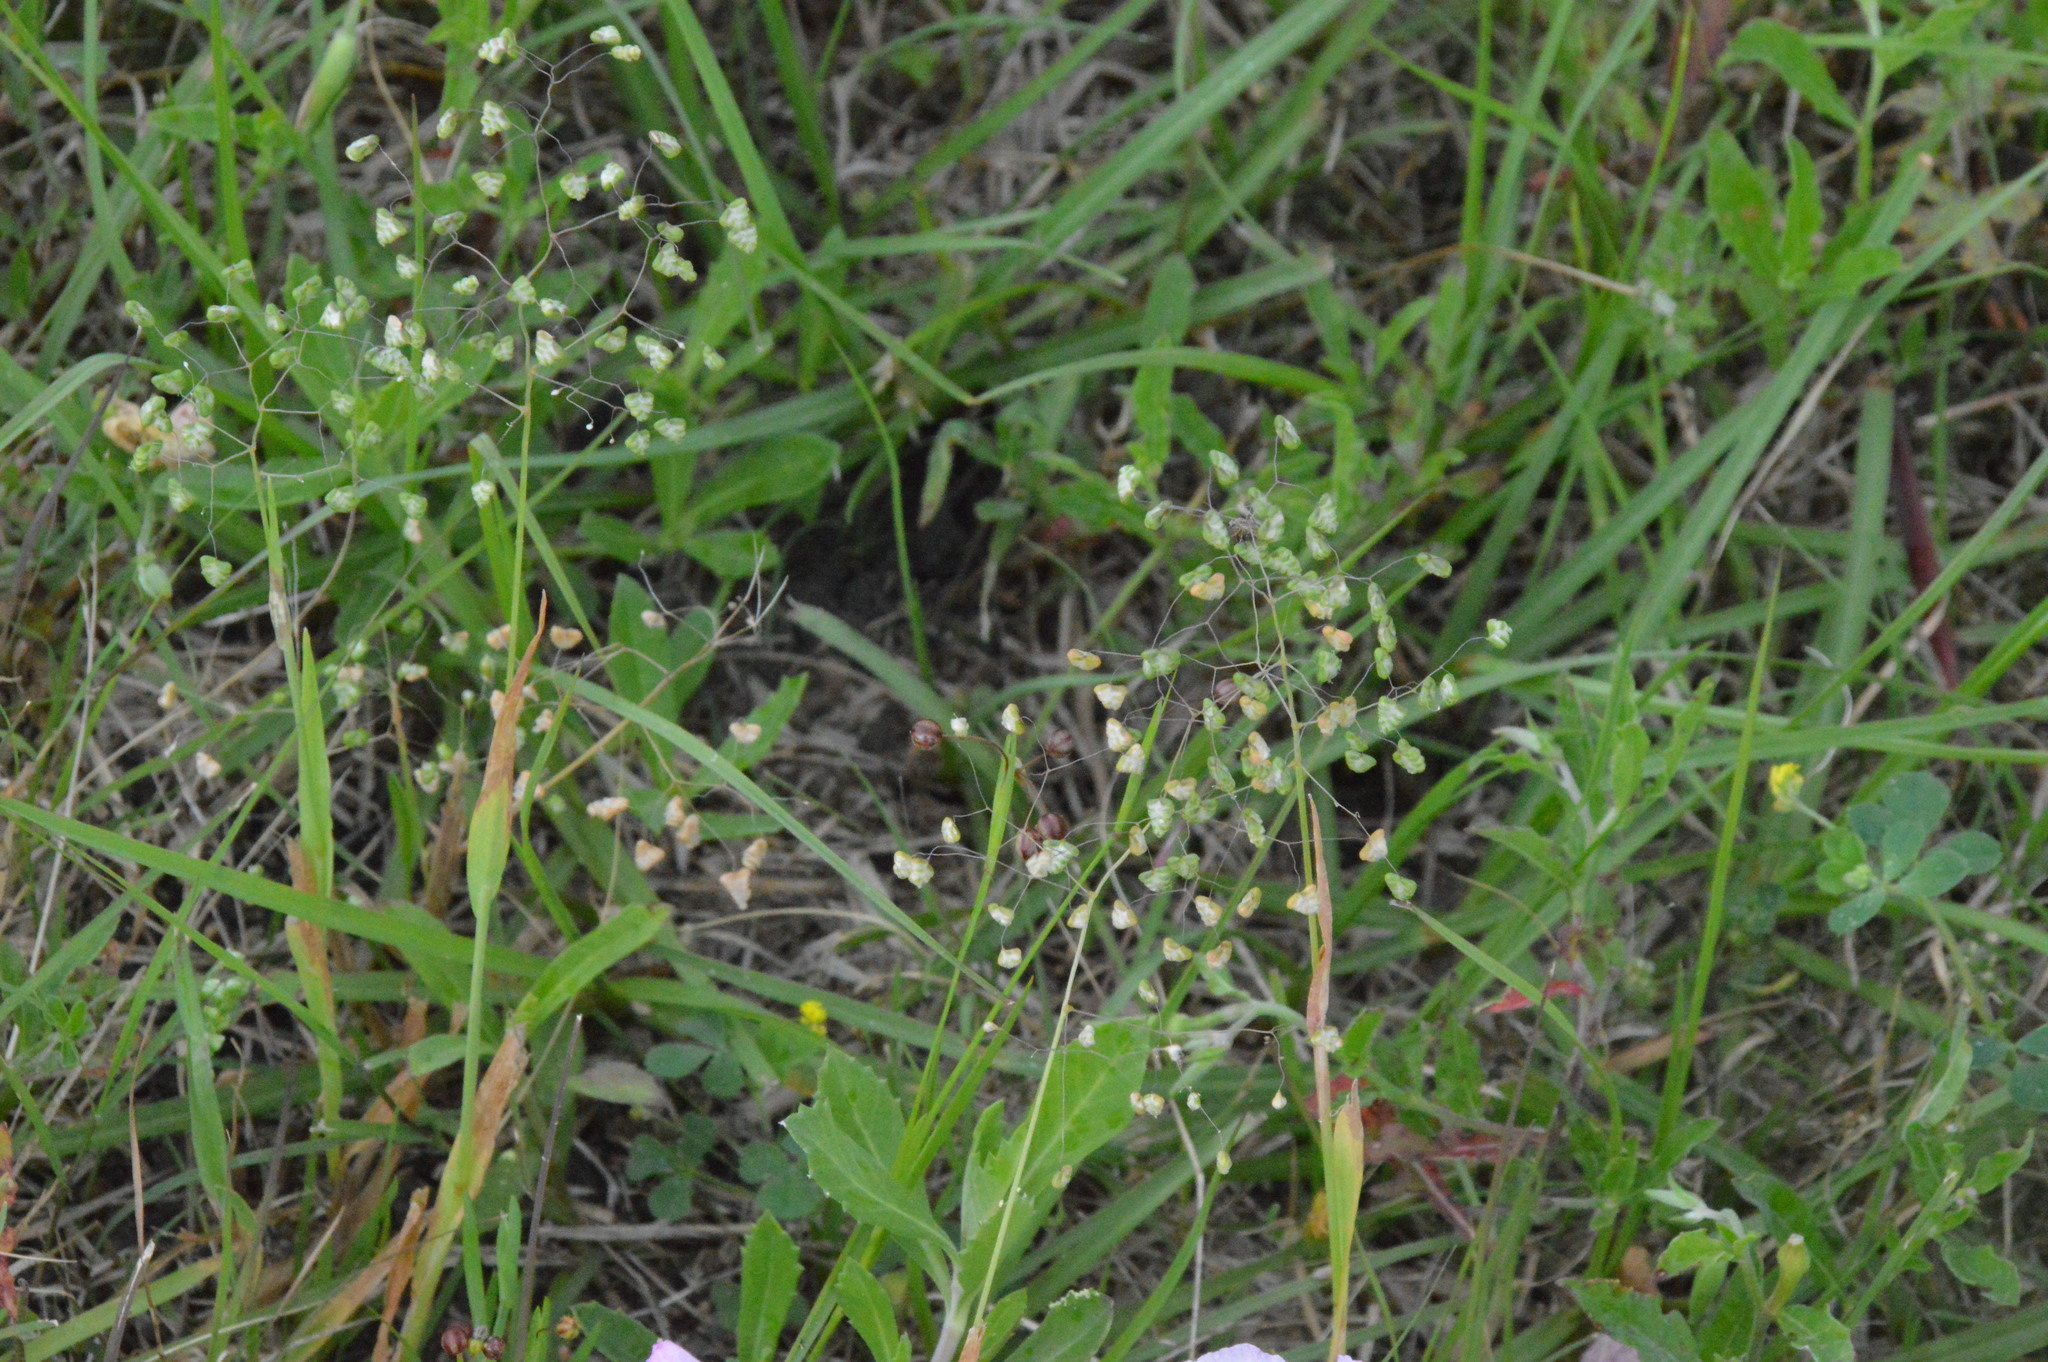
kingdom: Plantae
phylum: Tracheophyta
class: Liliopsida
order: Poales
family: Poaceae
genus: Briza
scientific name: Briza minor
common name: Lesser quaking-grass
